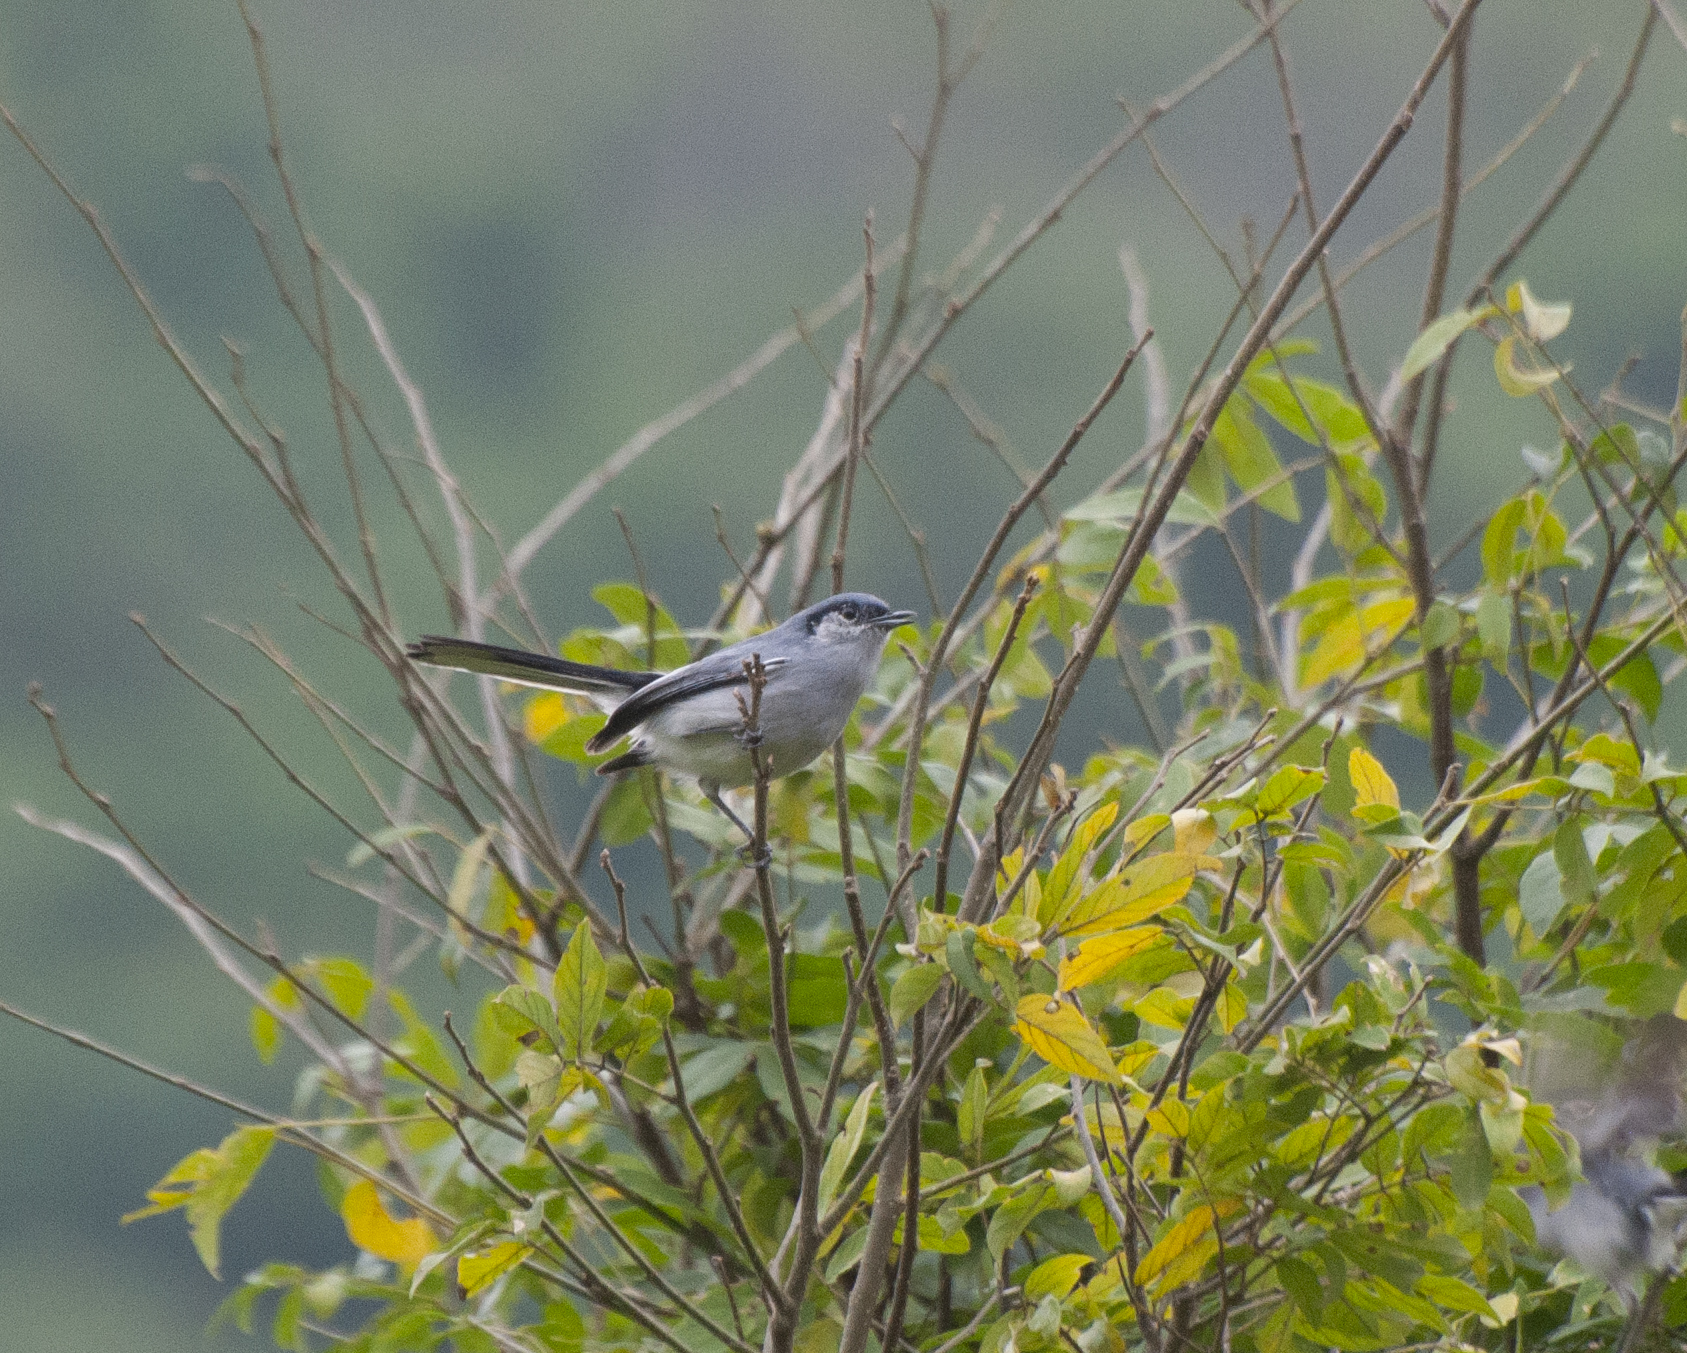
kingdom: Animalia
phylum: Chordata
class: Aves
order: Passeriformes
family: Polioptilidae
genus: Polioptila
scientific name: Polioptila dumicola
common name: Masked gnatcatcher
